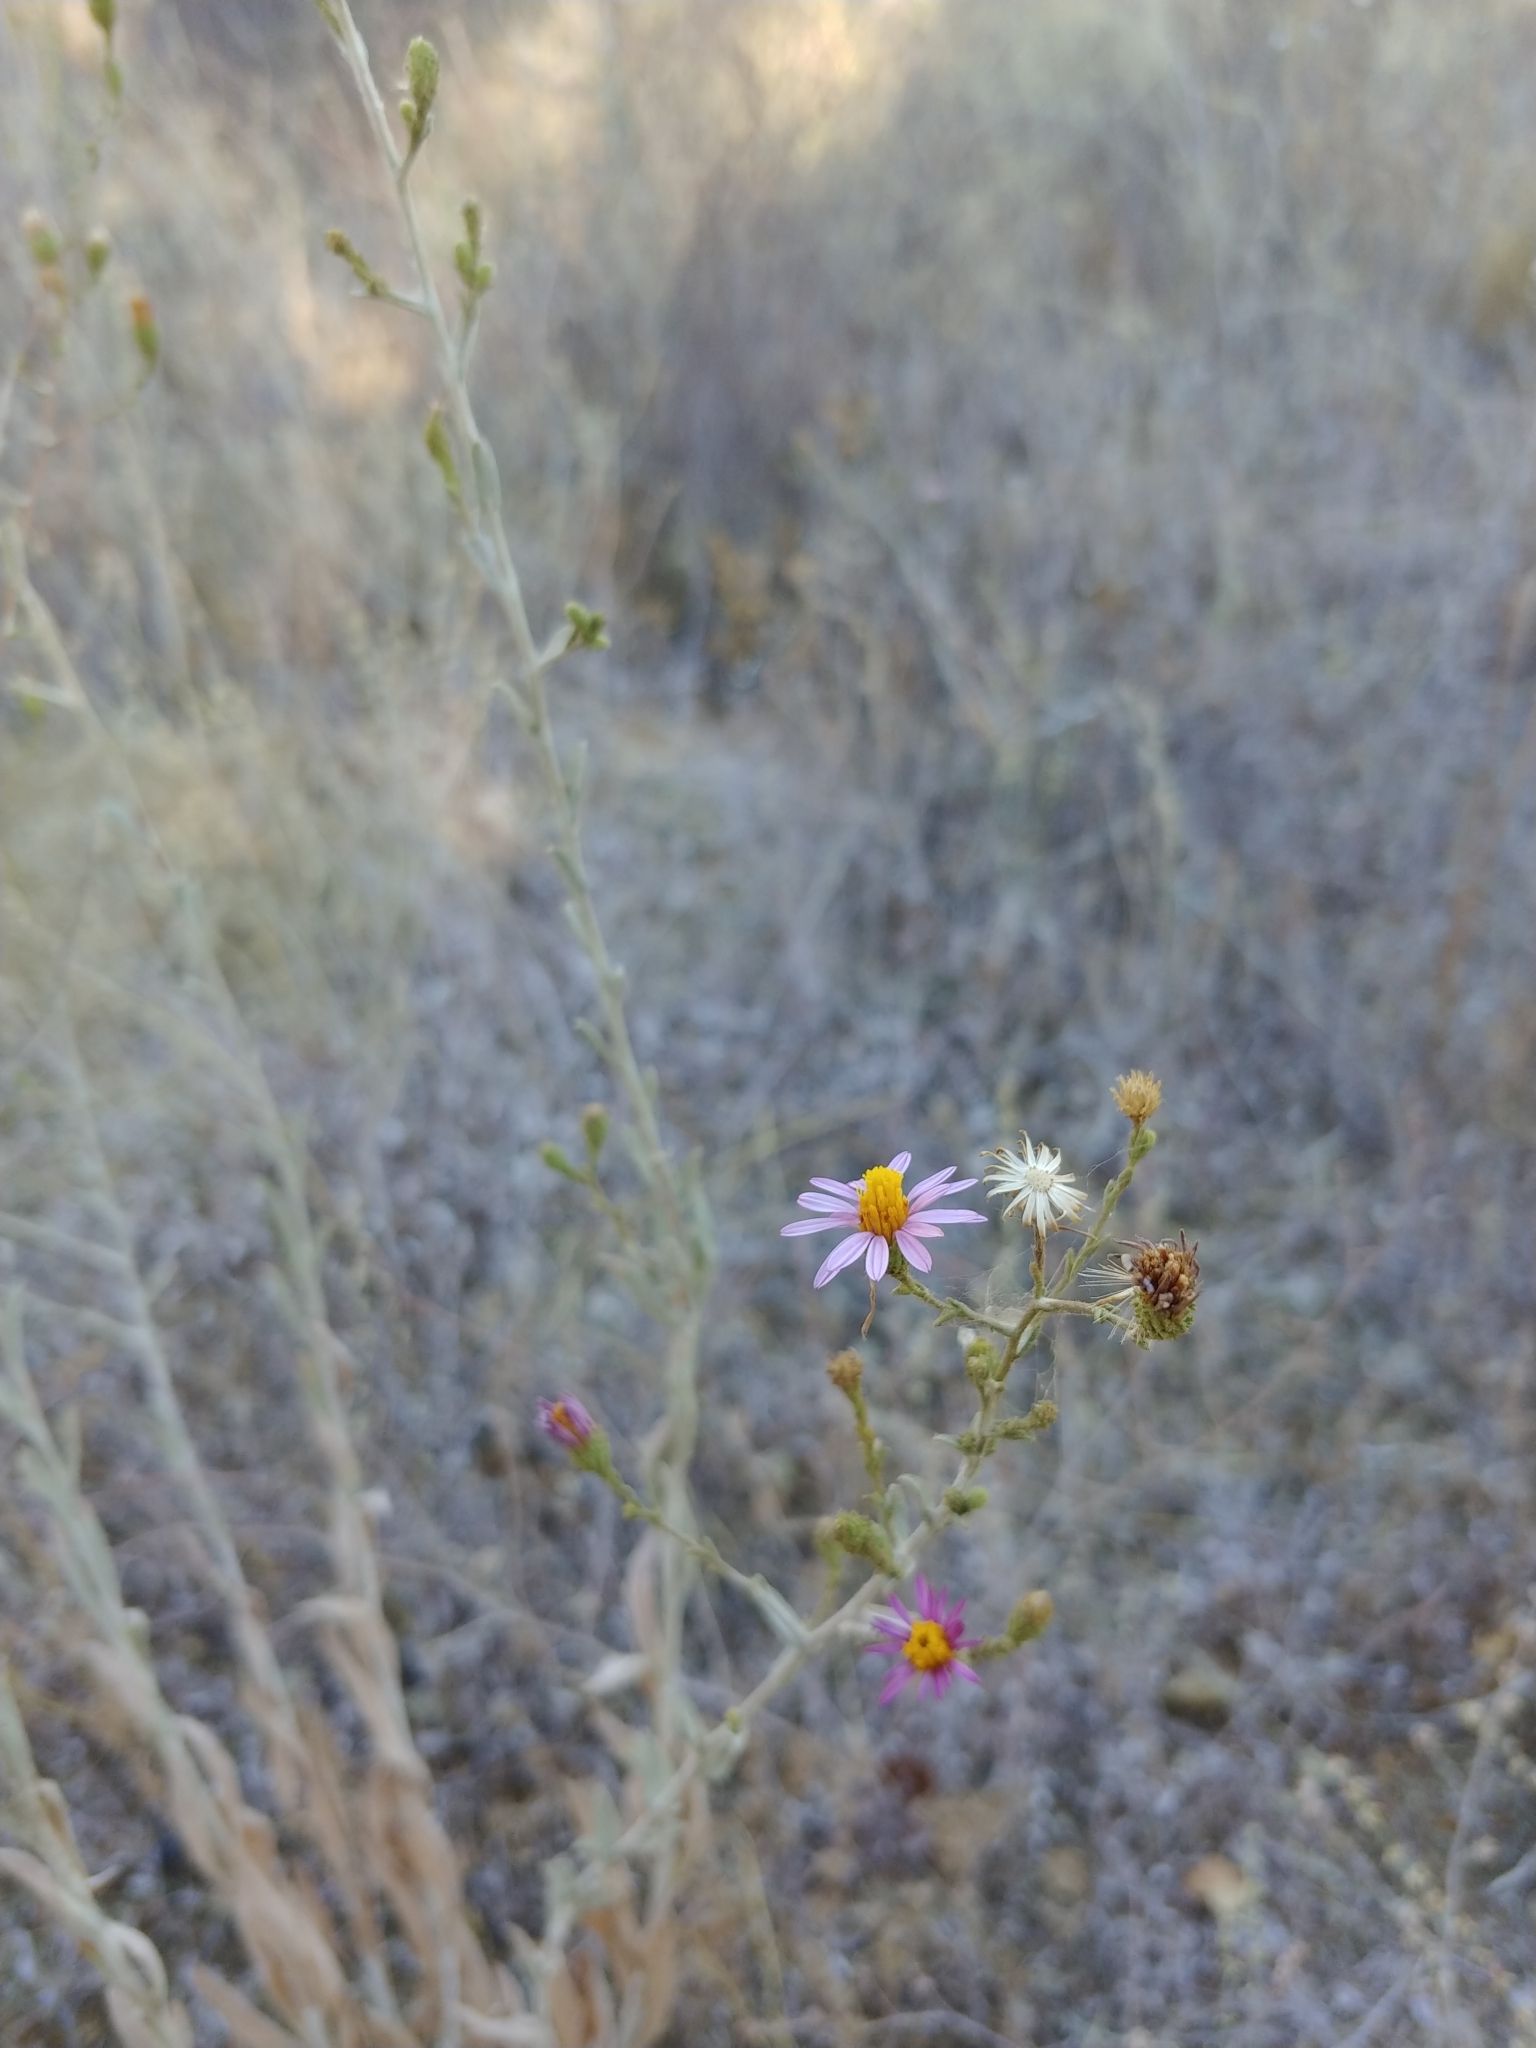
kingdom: Plantae
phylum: Tracheophyta
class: Magnoliopsida
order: Asterales
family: Asteraceae
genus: Corethrogyne
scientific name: Corethrogyne filaginifolia
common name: Sand-aster
